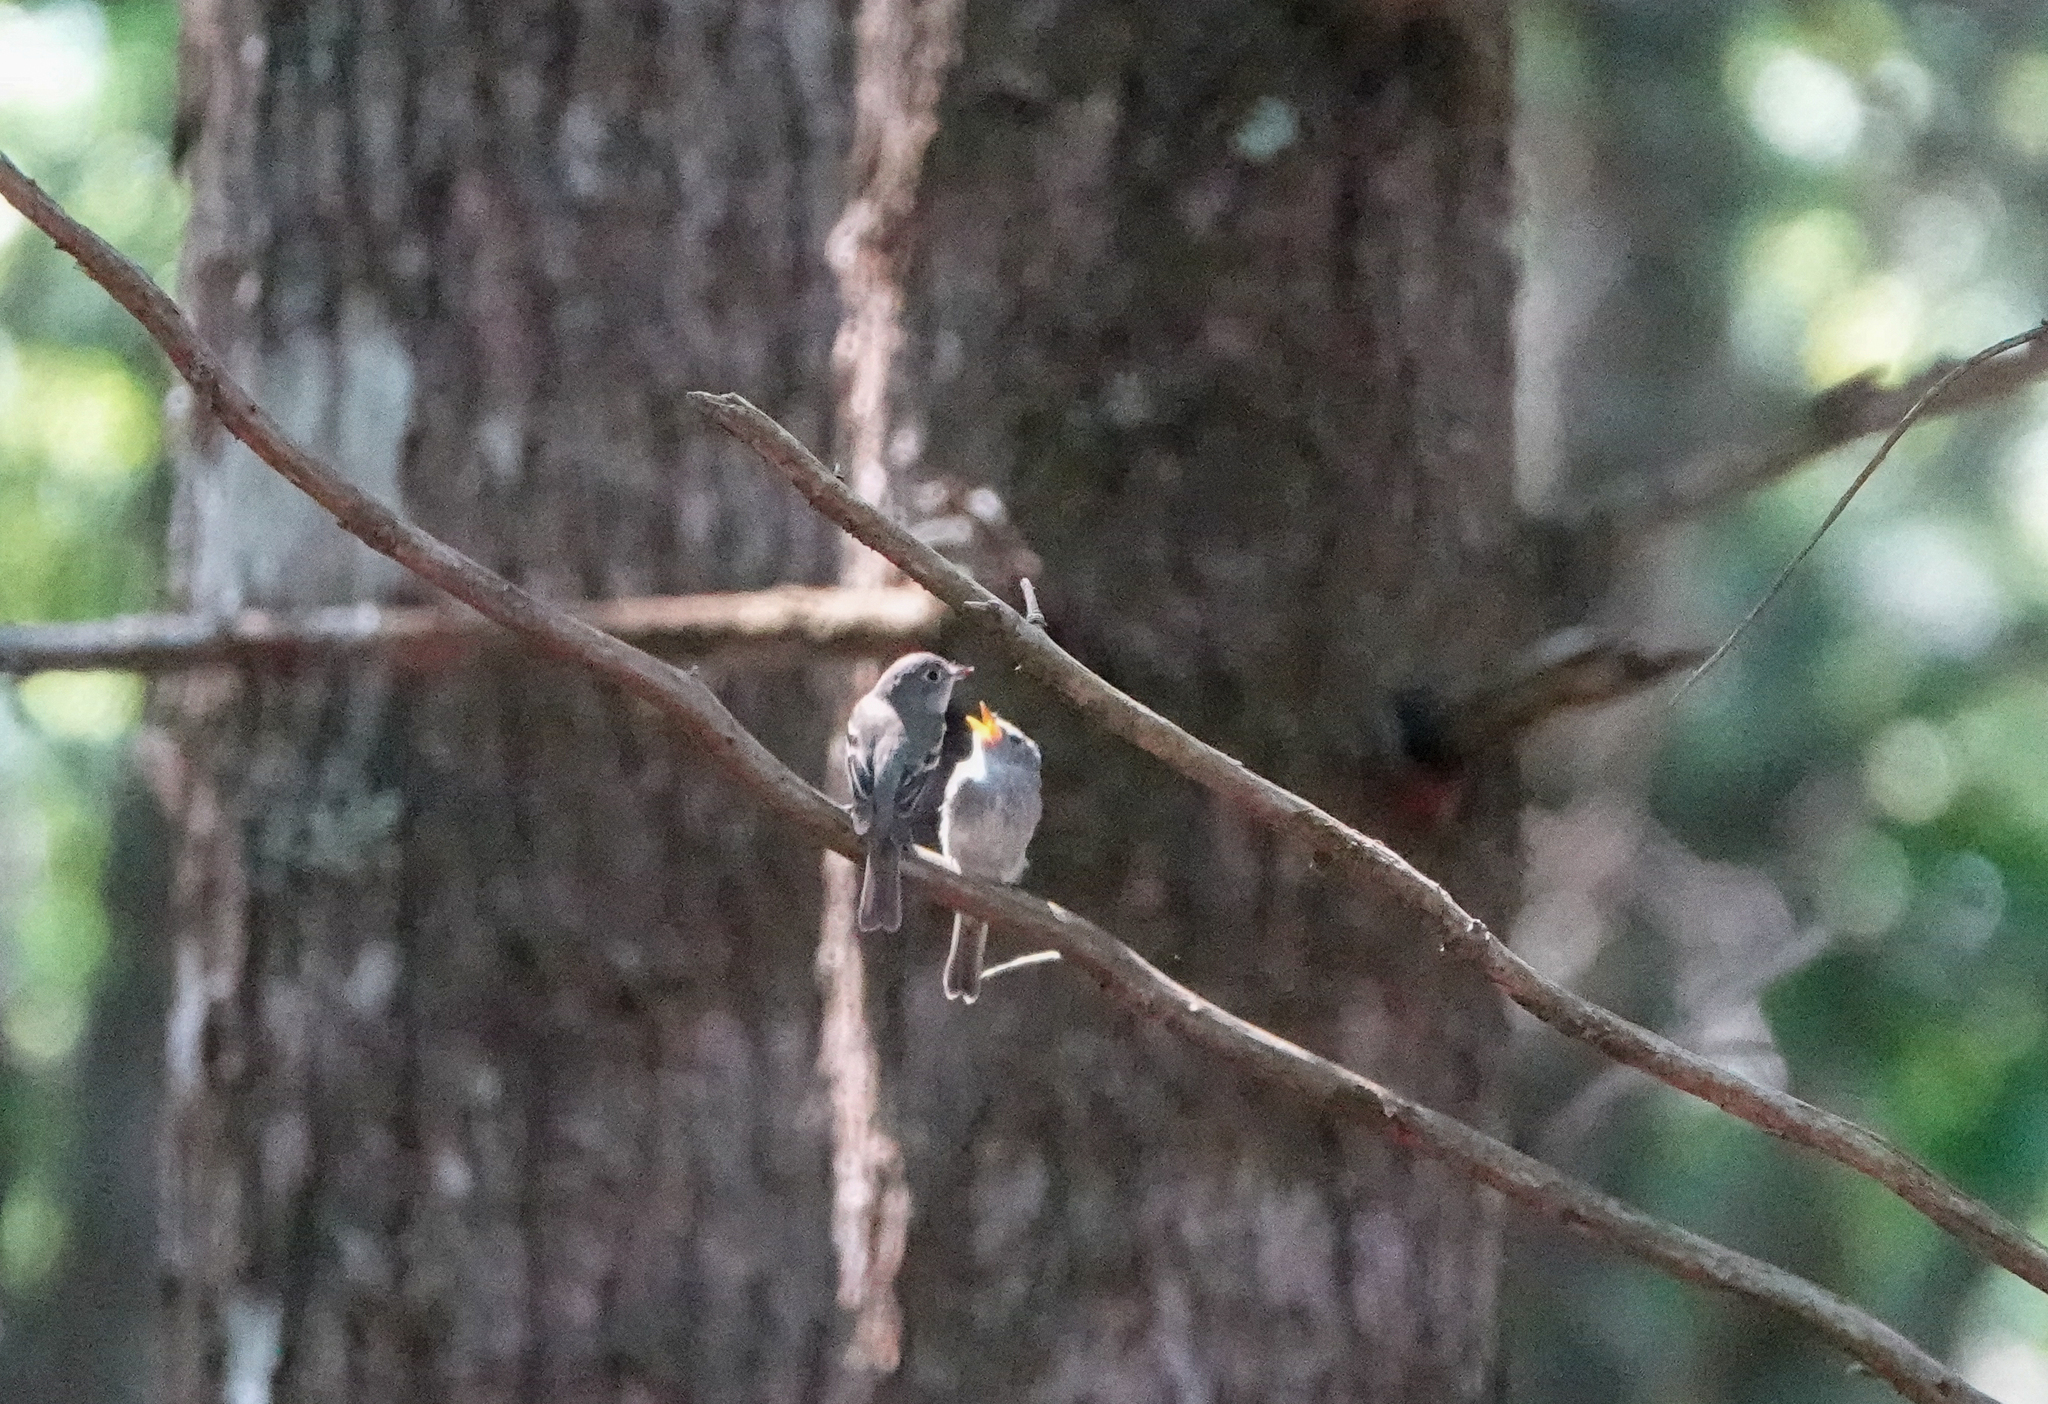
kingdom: Animalia
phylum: Chordata
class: Aves
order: Passeriformes
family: Tyrannidae
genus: Empidonax
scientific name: Empidonax minimus
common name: Least flycatcher
